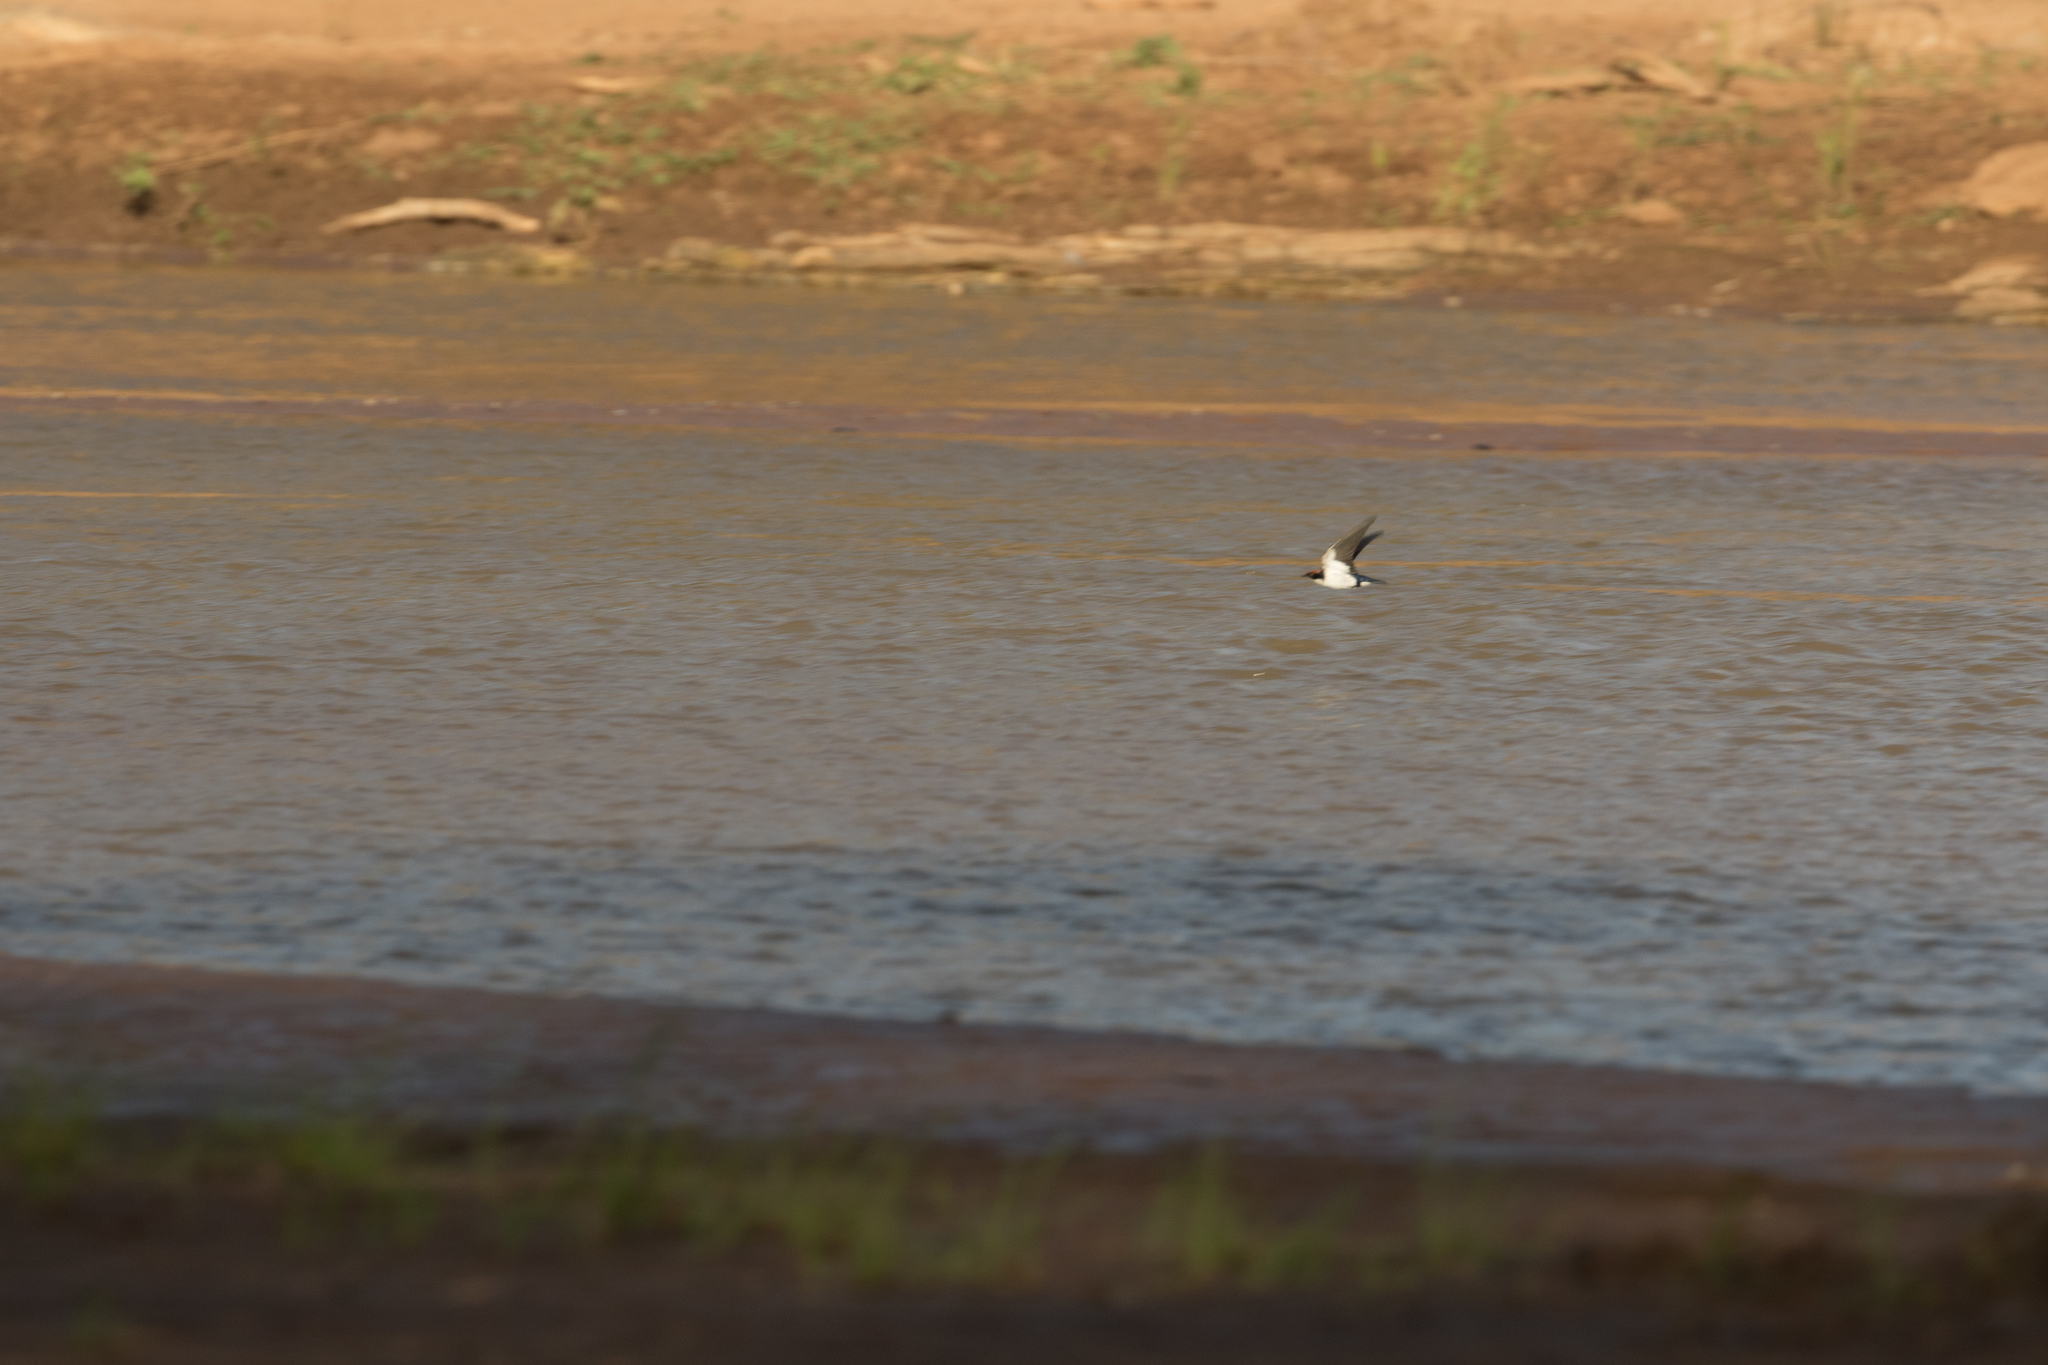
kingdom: Animalia
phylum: Chordata
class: Aves
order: Passeriformes
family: Hirundinidae
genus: Hirundo
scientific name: Hirundo smithii
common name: Wire-tailed swallow
